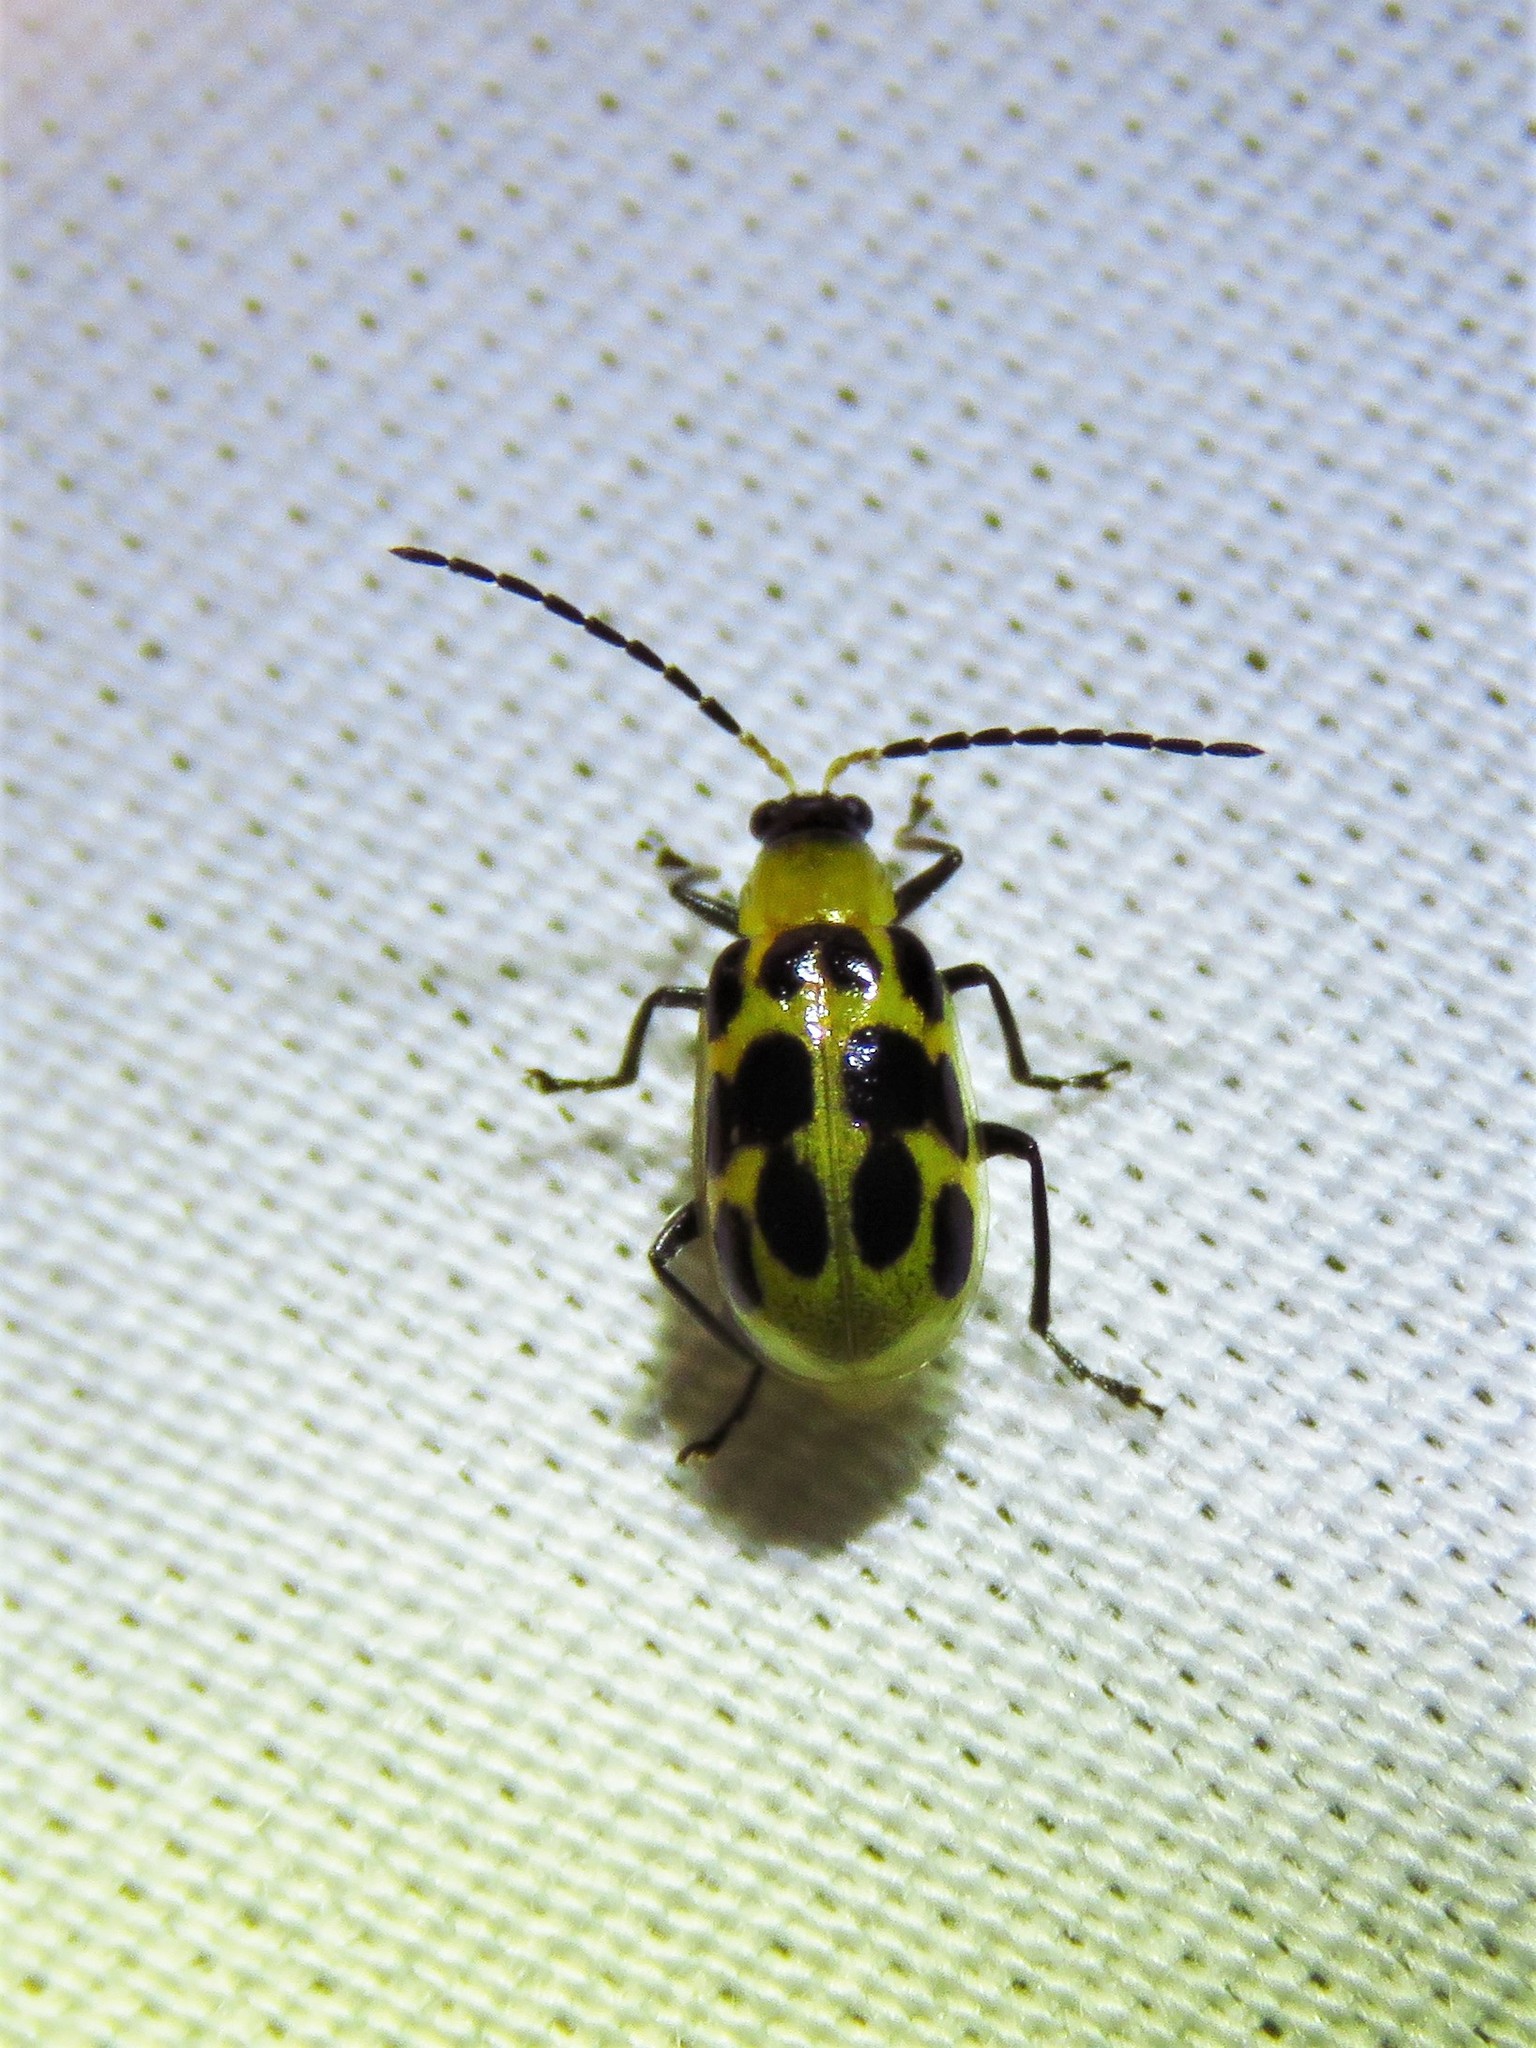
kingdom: Animalia
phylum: Arthropoda
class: Insecta
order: Coleoptera
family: Chrysomelidae
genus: Diabrotica
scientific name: Diabrotica undecimpunctata
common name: Spotted cucumber beetle
